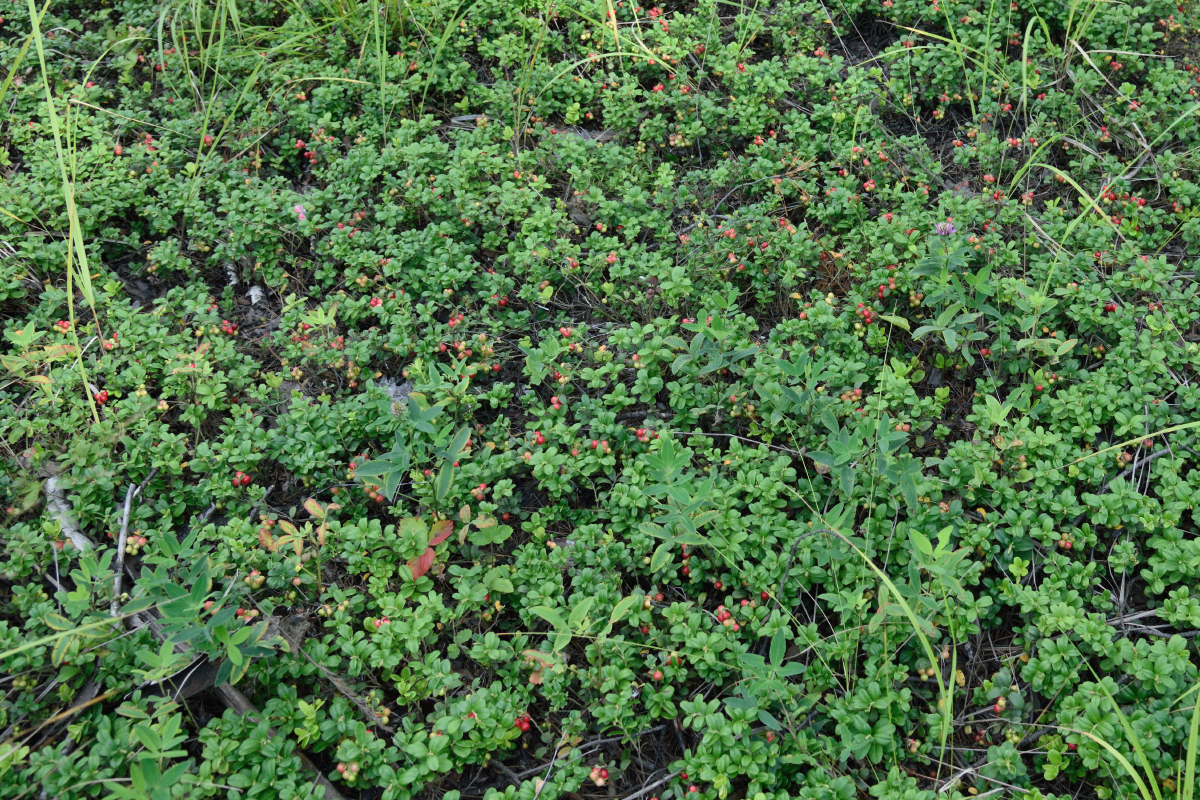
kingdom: Plantae
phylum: Tracheophyta
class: Magnoliopsida
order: Ericales
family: Ericaceae
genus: Vaccinium
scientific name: Vaccinium vitis-idaea
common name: Cowberry
